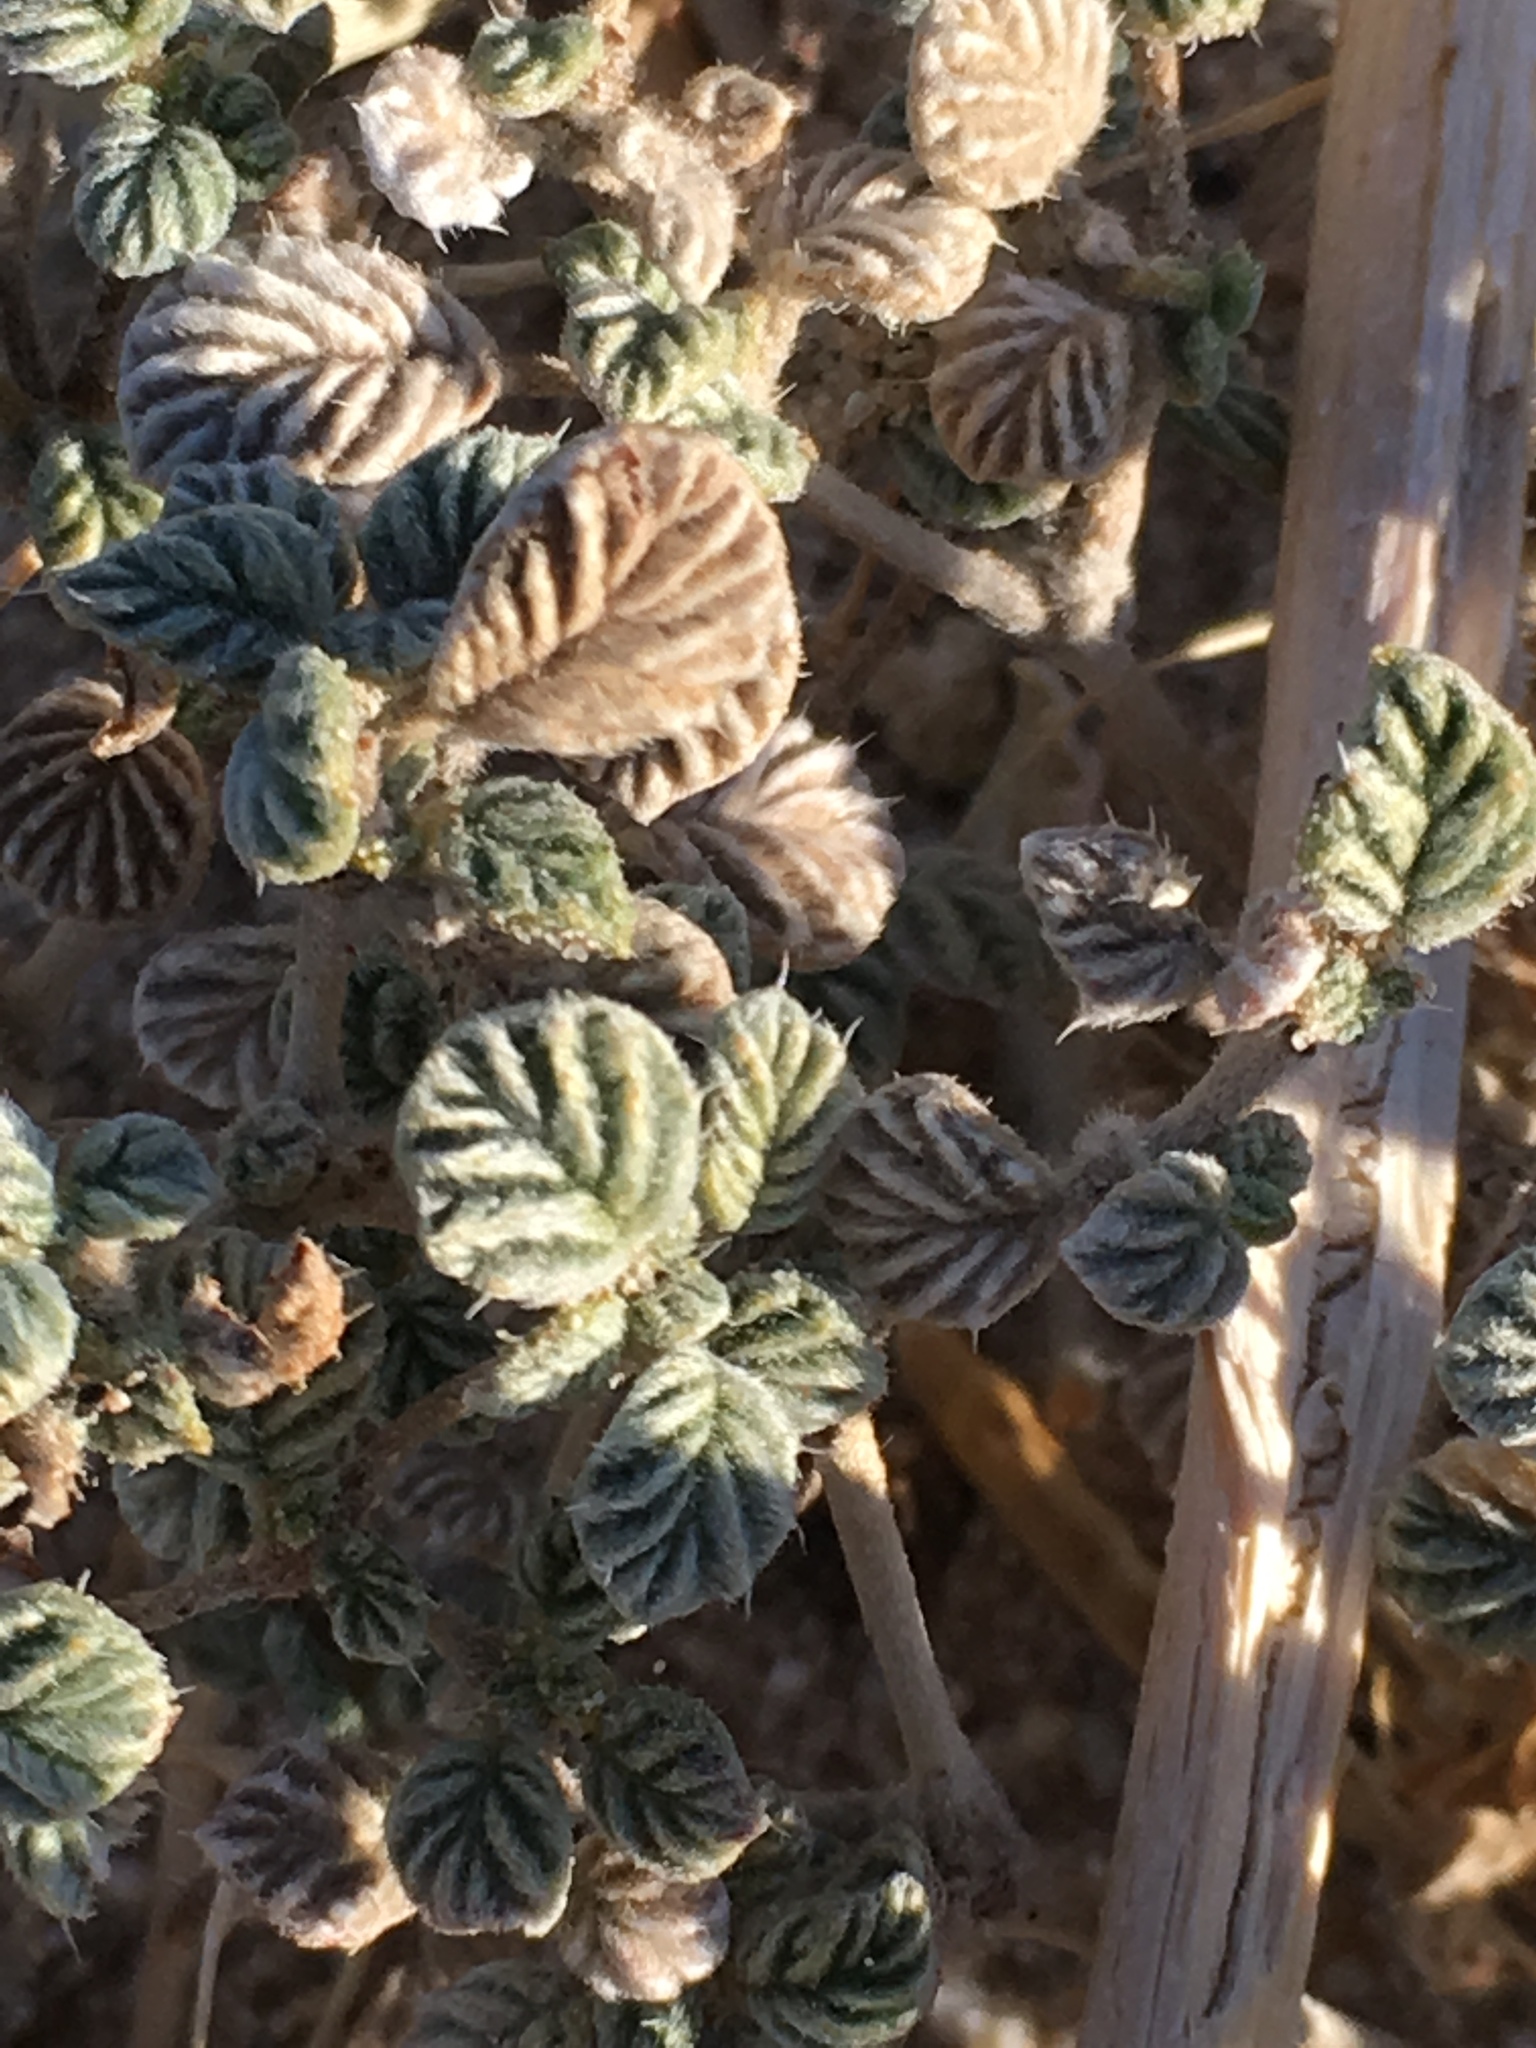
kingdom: Plantae
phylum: Tracheophyta
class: Magnoliopsida
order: Boraginales
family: Ehretiaceae
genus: Tiquilia
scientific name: Tiquilia plicata
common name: Fan-leaf tiquilia
